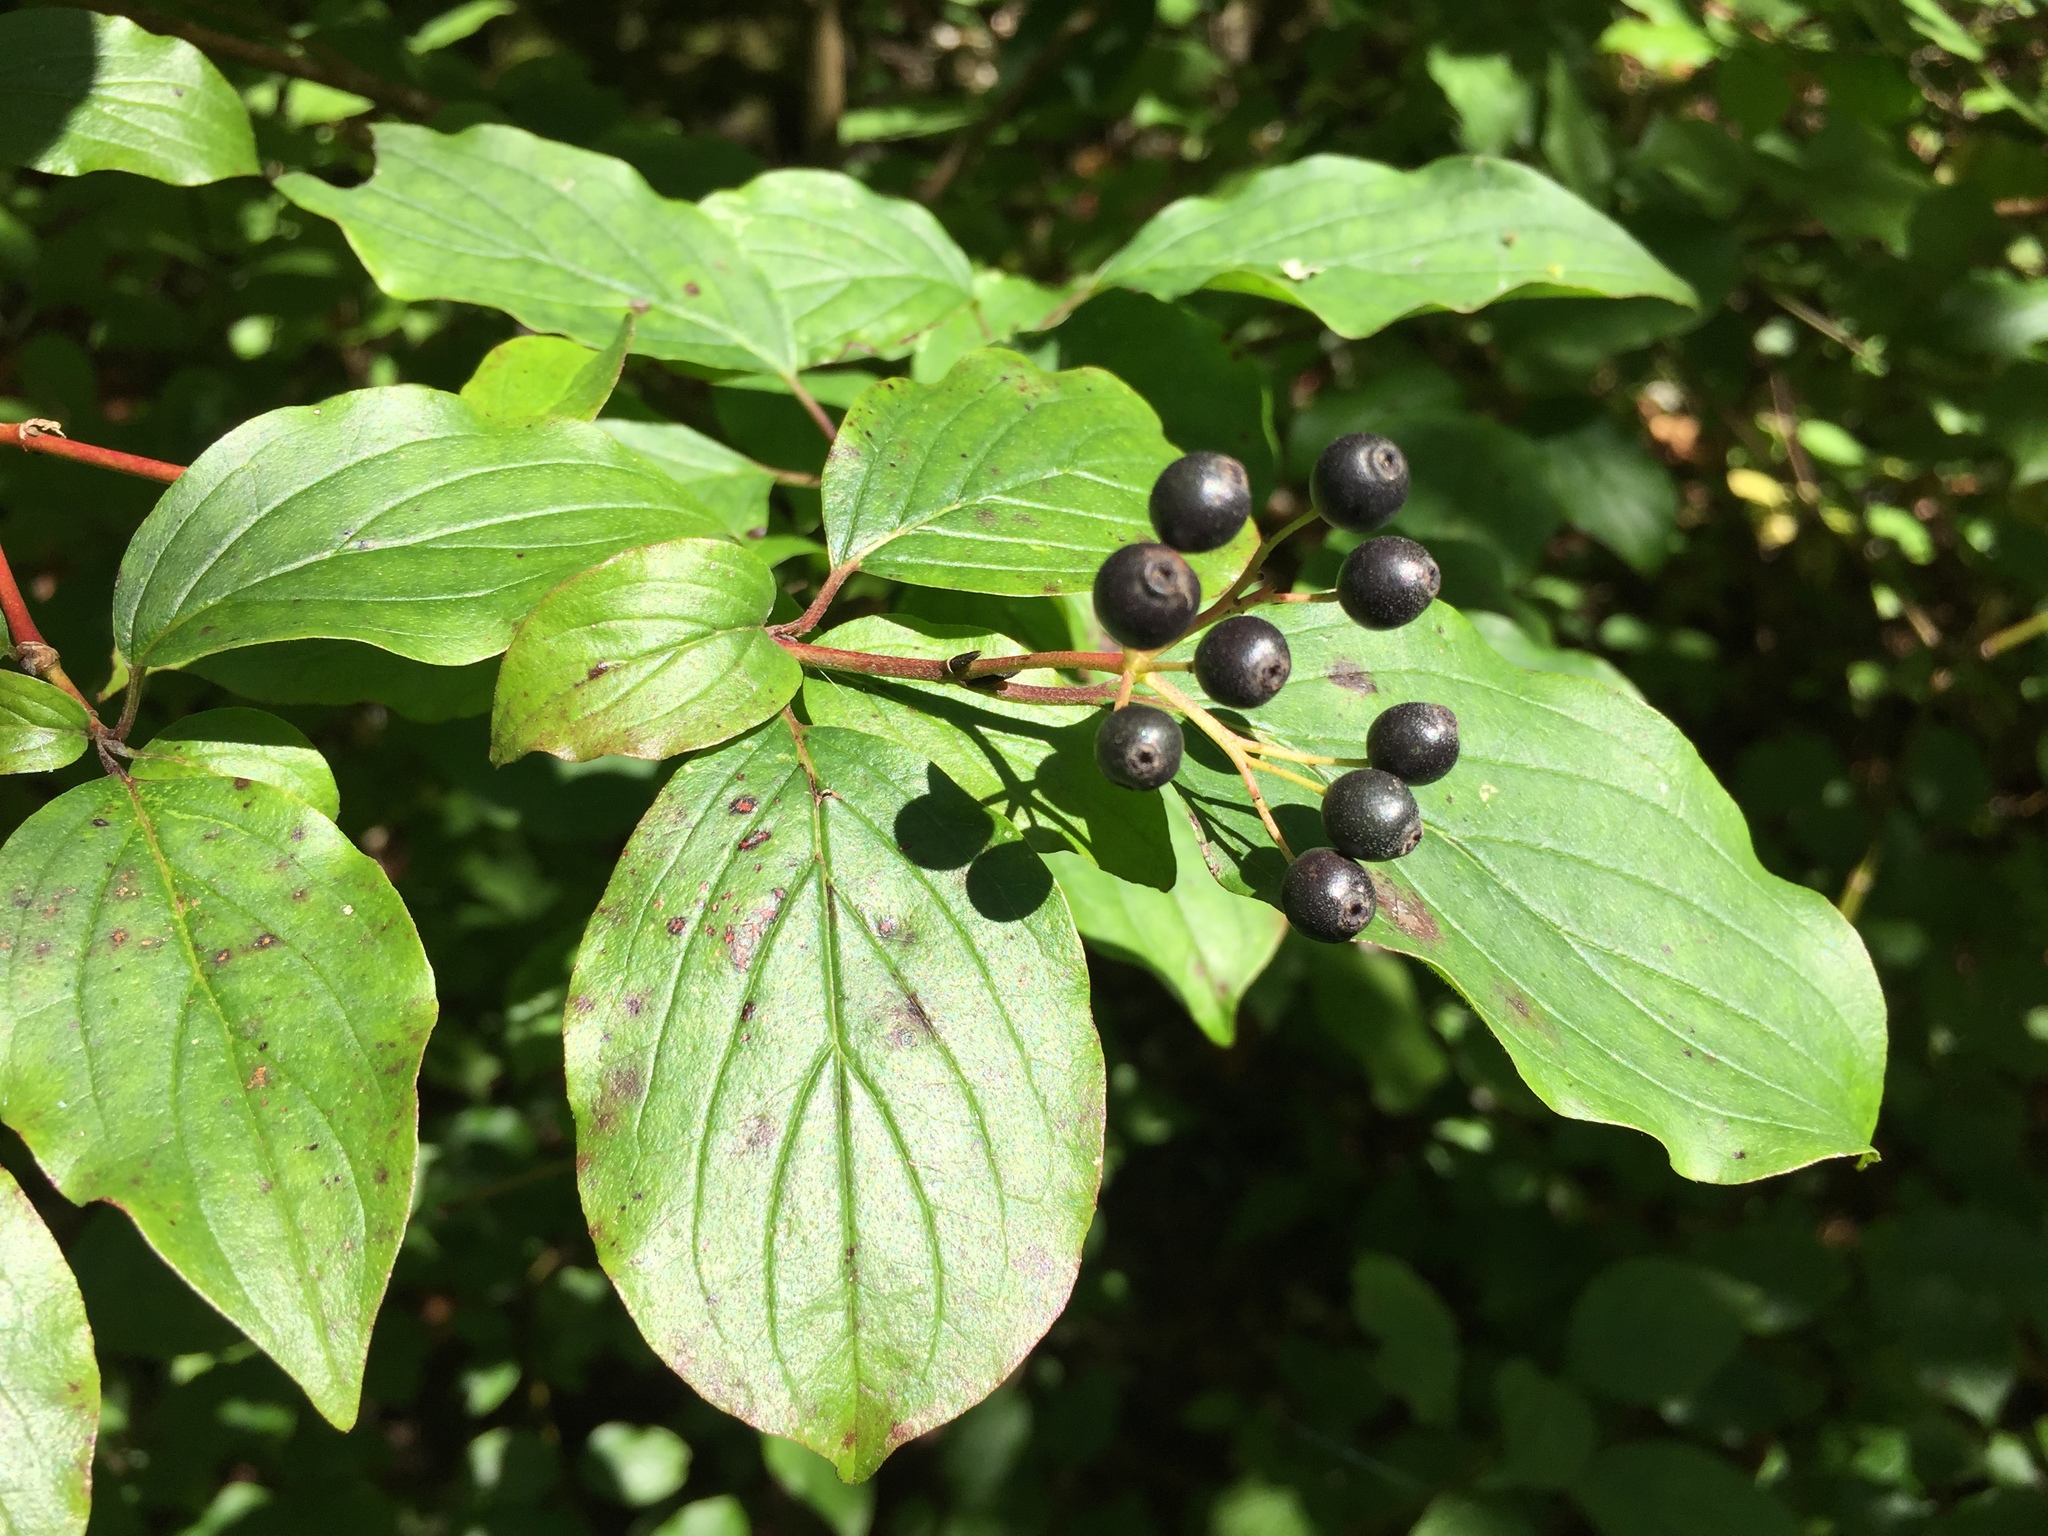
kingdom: Plantae
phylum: Tracheophyta
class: Magnoliopsida
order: Cornales
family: Cornaceae
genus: Cornus
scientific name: Cornus sanguinea
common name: Dogwood
